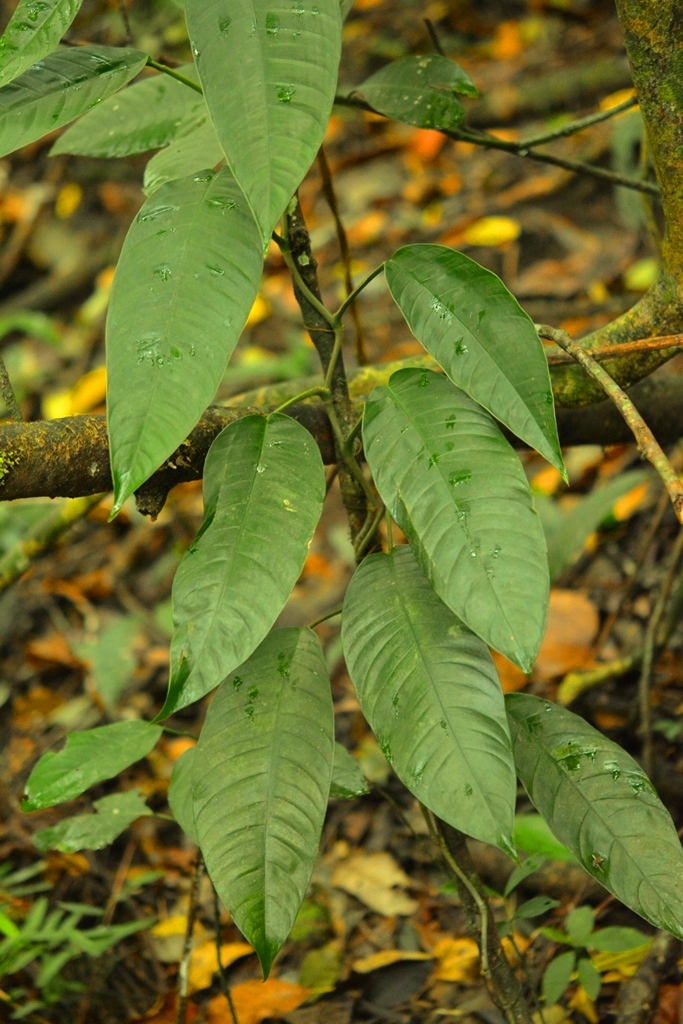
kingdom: Plantae
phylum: Tracheophyta
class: Liliopsida
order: Alismatales
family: Araceae
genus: Philodendron
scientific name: Philodendron inaequilaterum
